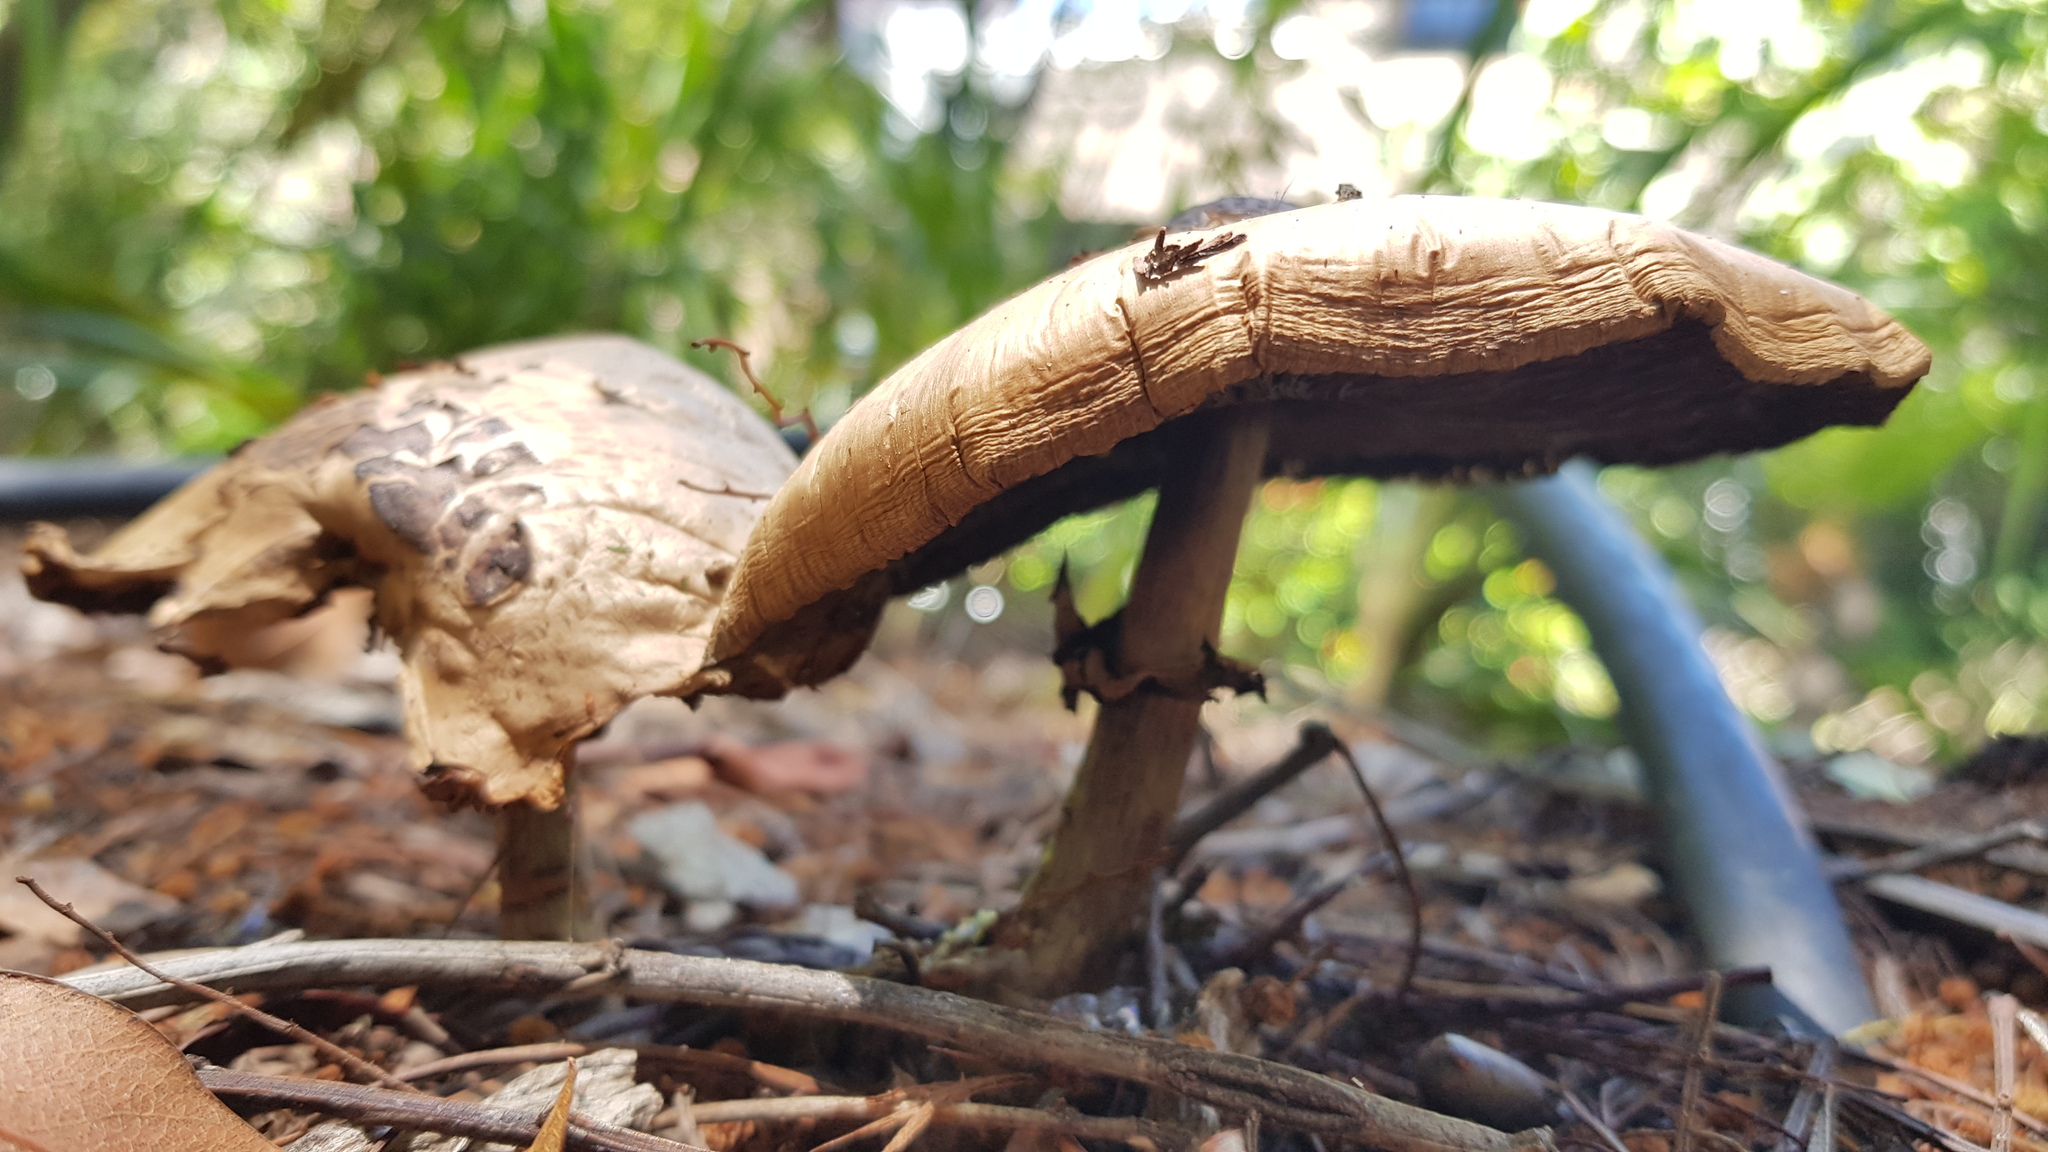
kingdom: Fungi
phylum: Basidiomycota
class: Agaricomycetes
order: Agaricales
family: Agaricaceae
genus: Chlorophyllum
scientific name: Chlorophyllum molybdites
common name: False parasol
